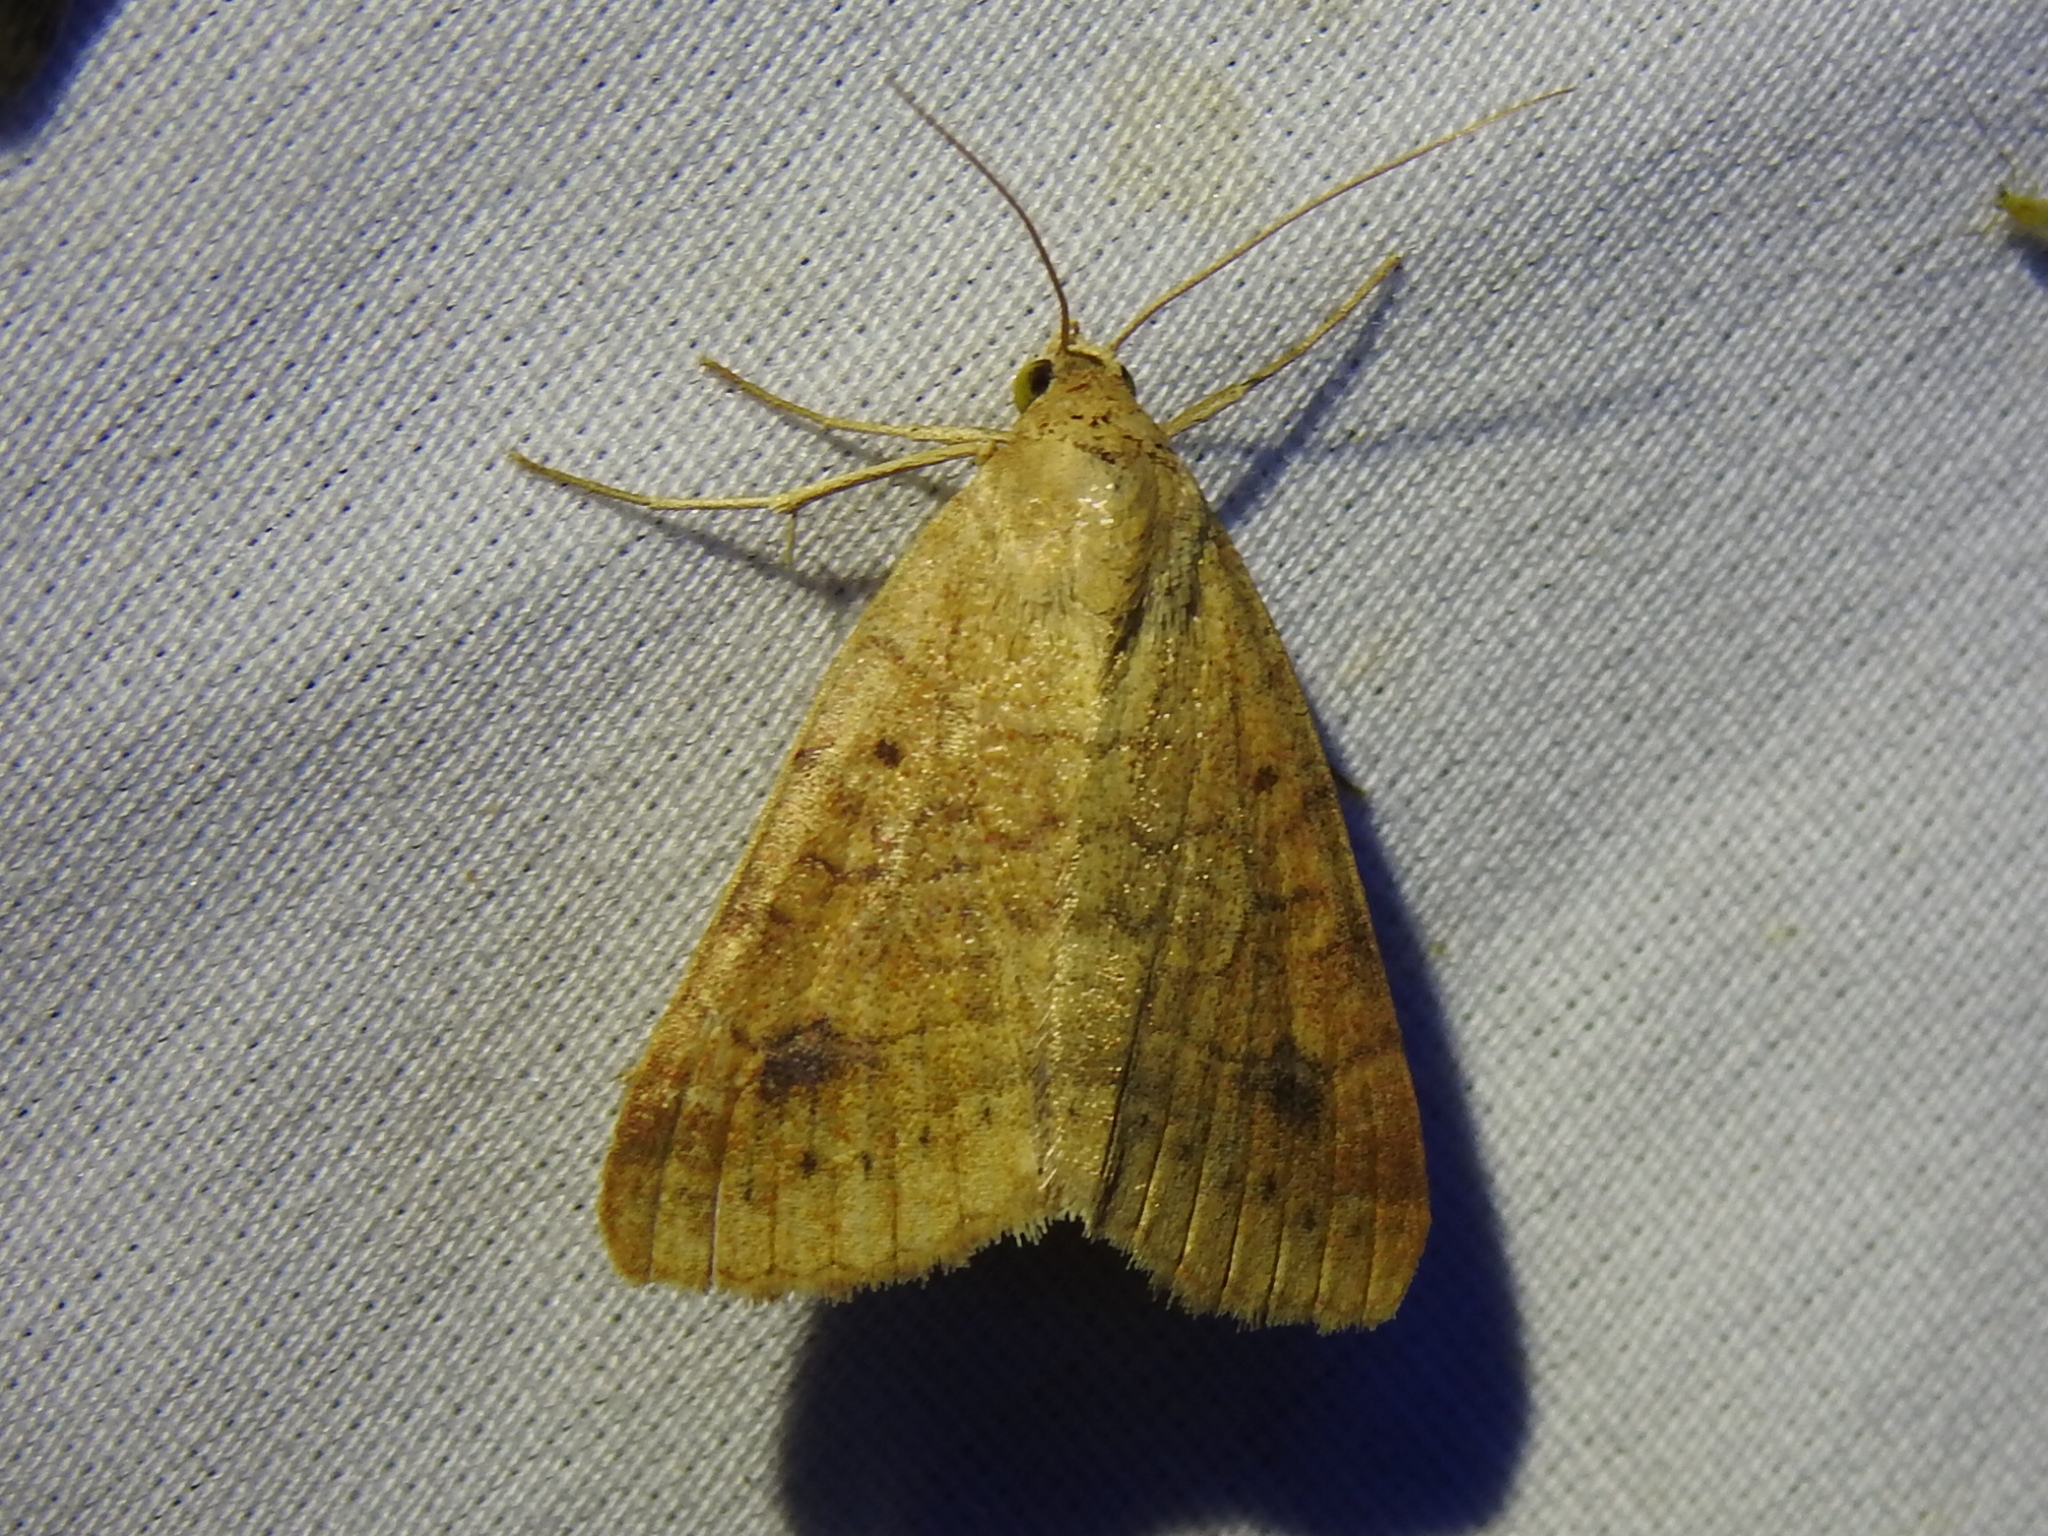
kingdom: Animalia
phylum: Arthropoda
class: Insecta
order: Lepidoptera
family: Erebidae
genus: Caenurgia
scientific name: Caenurgia chloropha
